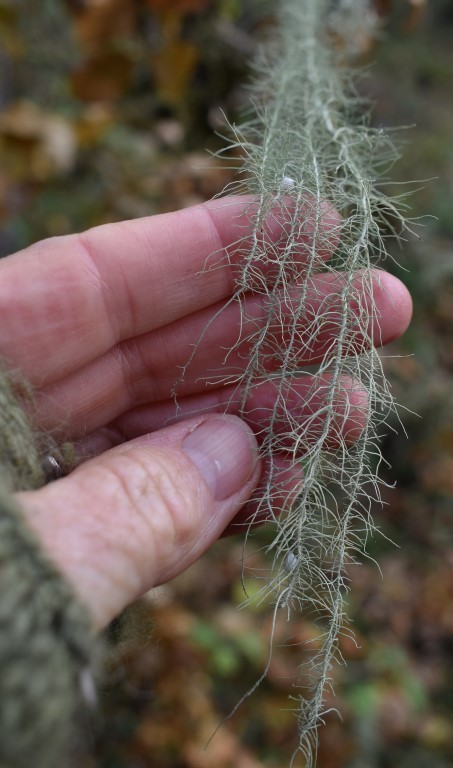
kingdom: Fungi
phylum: Ascomycota
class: Lecanoromycetes
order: Lecanorales
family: Parmeliaceae
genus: Dolichousnea
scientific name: Dolichousnea longissima
